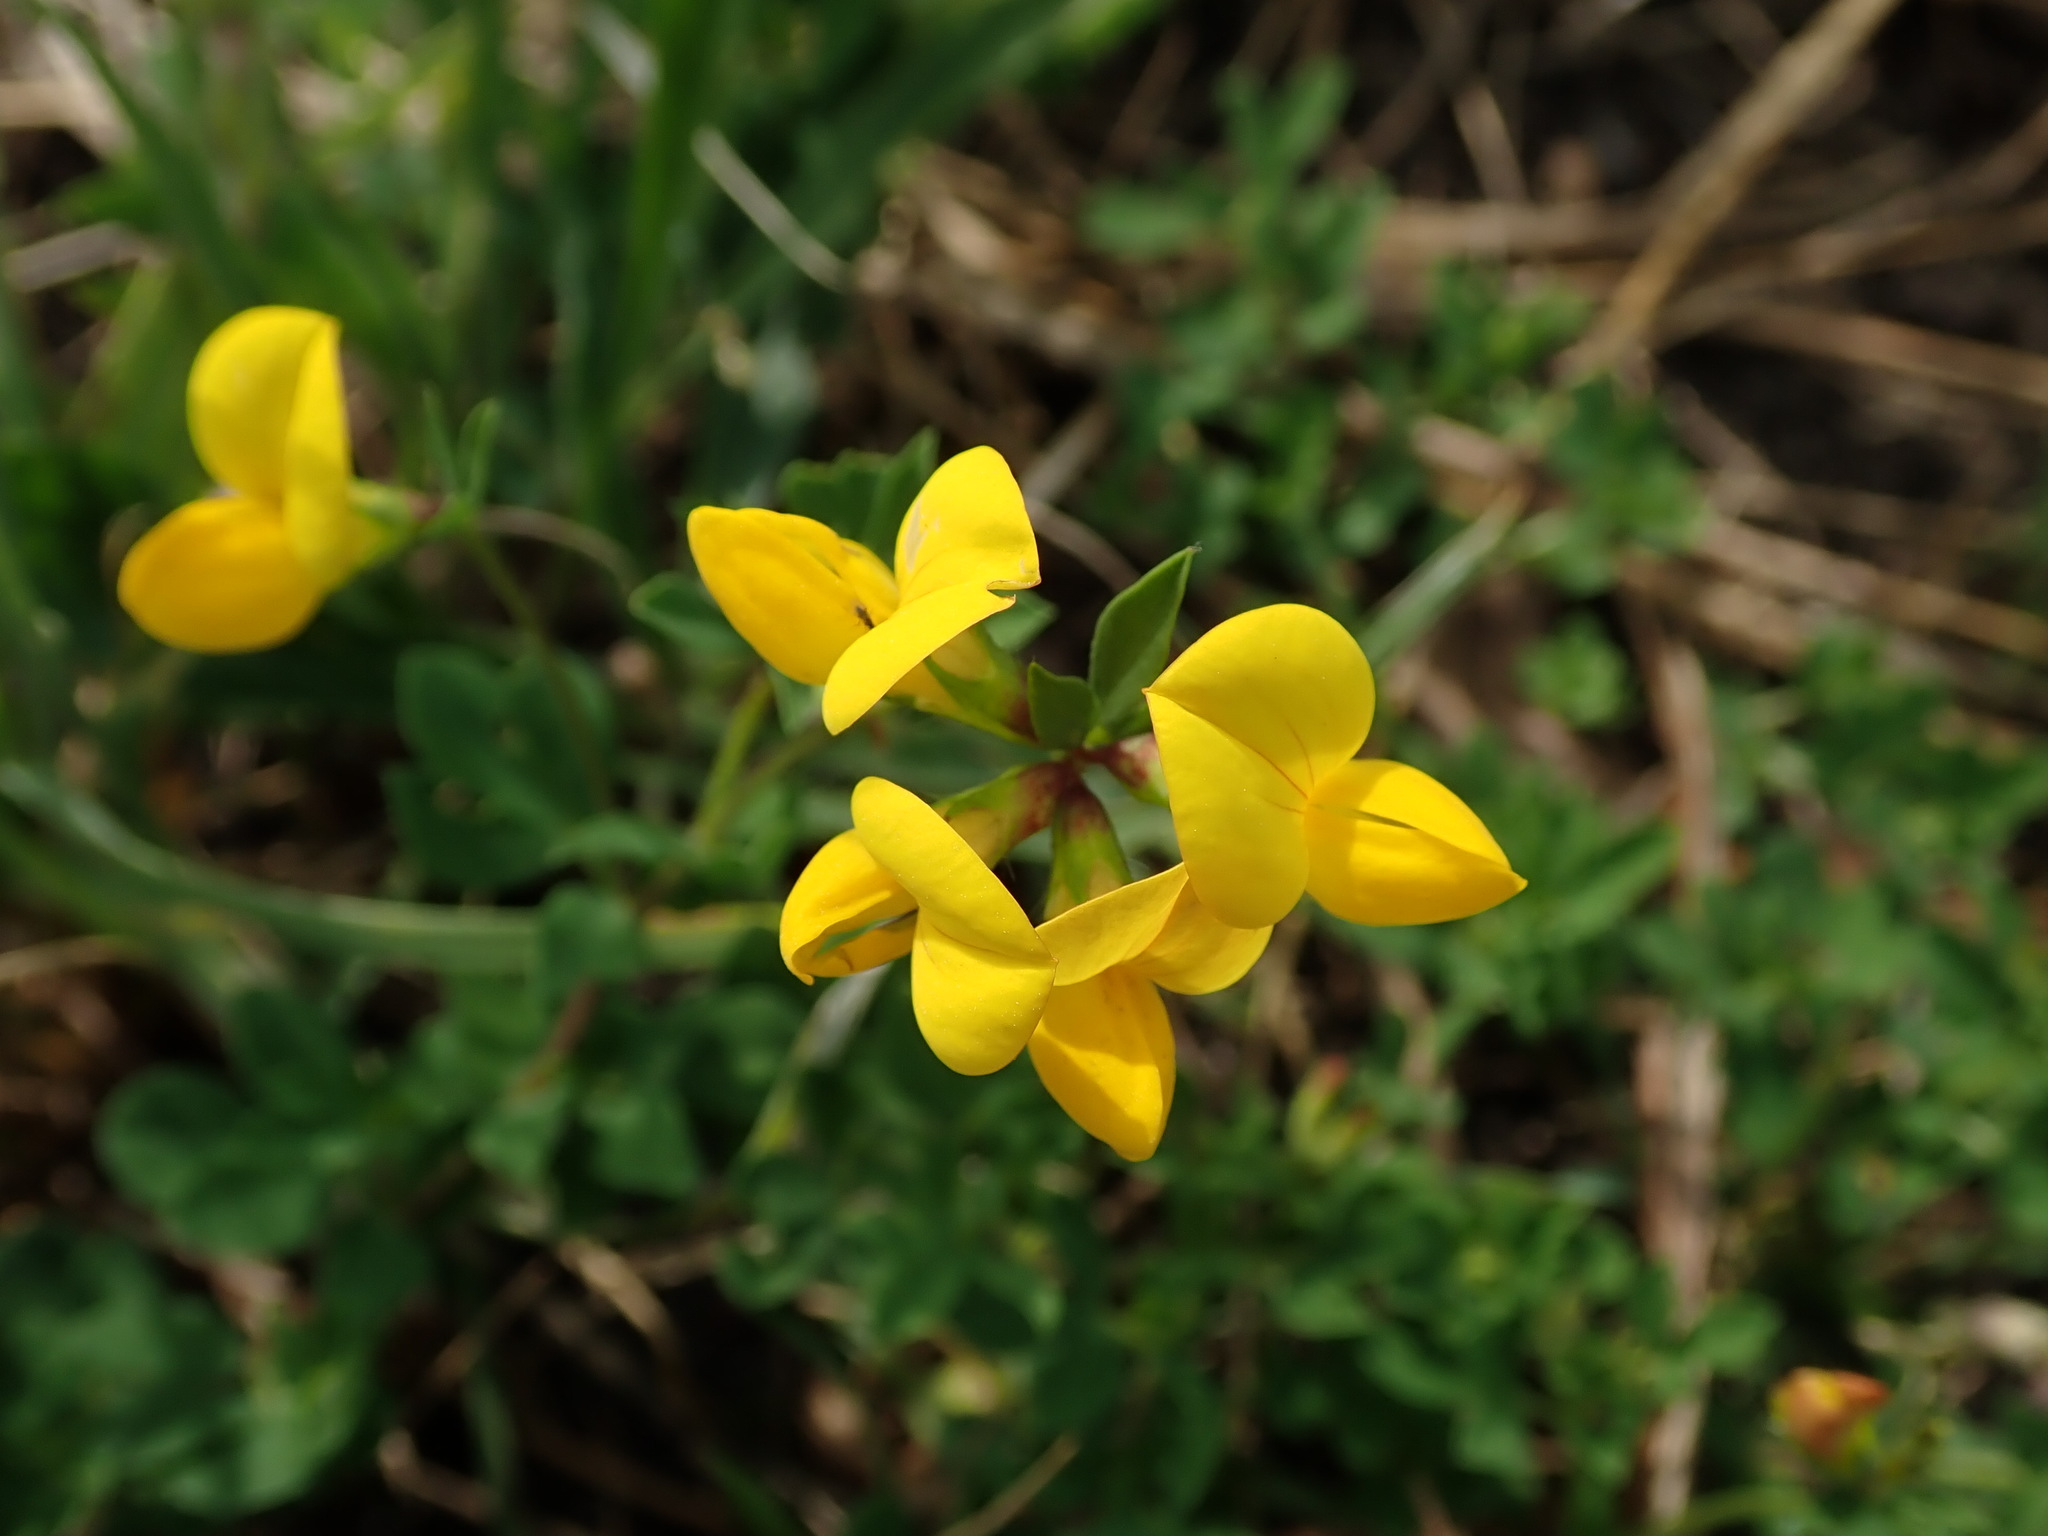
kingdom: Plantae
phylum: Tracheophyta
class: Magnoliopsida
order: Fabales
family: Fabaceae
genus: Lotus
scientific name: Lotus corniculatus
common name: Common bird's-foot-trefoil
